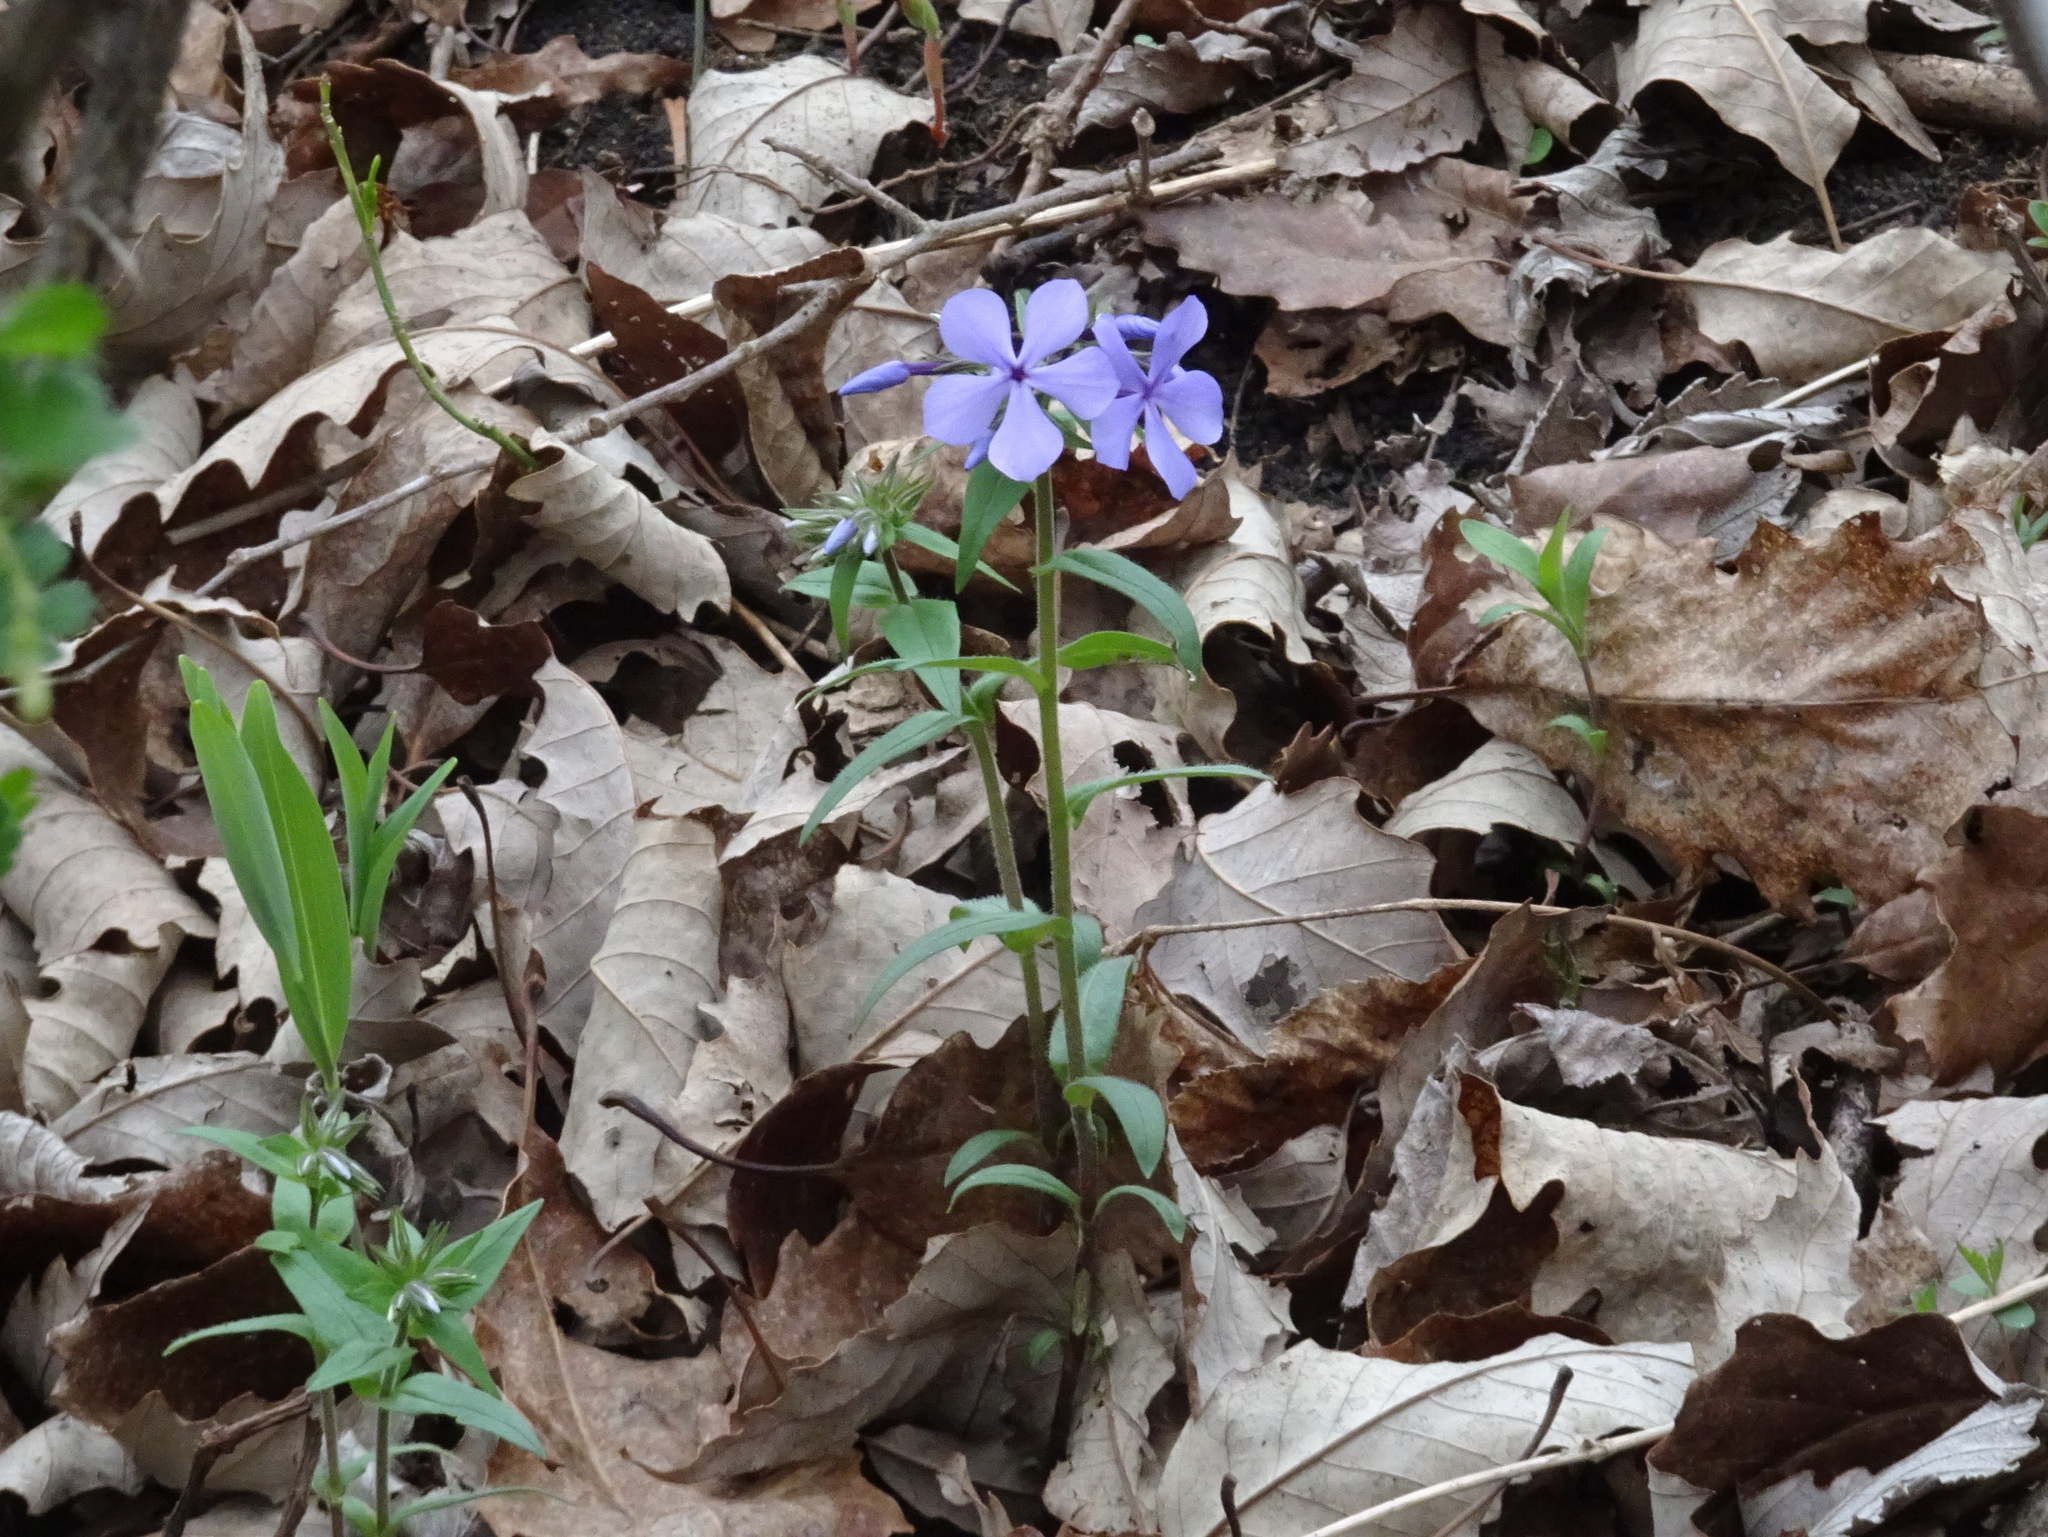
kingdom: Plantae
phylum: Tracheophyta
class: Magnoliopsida
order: Ericales
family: Polemoniaceae
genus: Phlox
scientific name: Phlox divaricata
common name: Blue phlox
